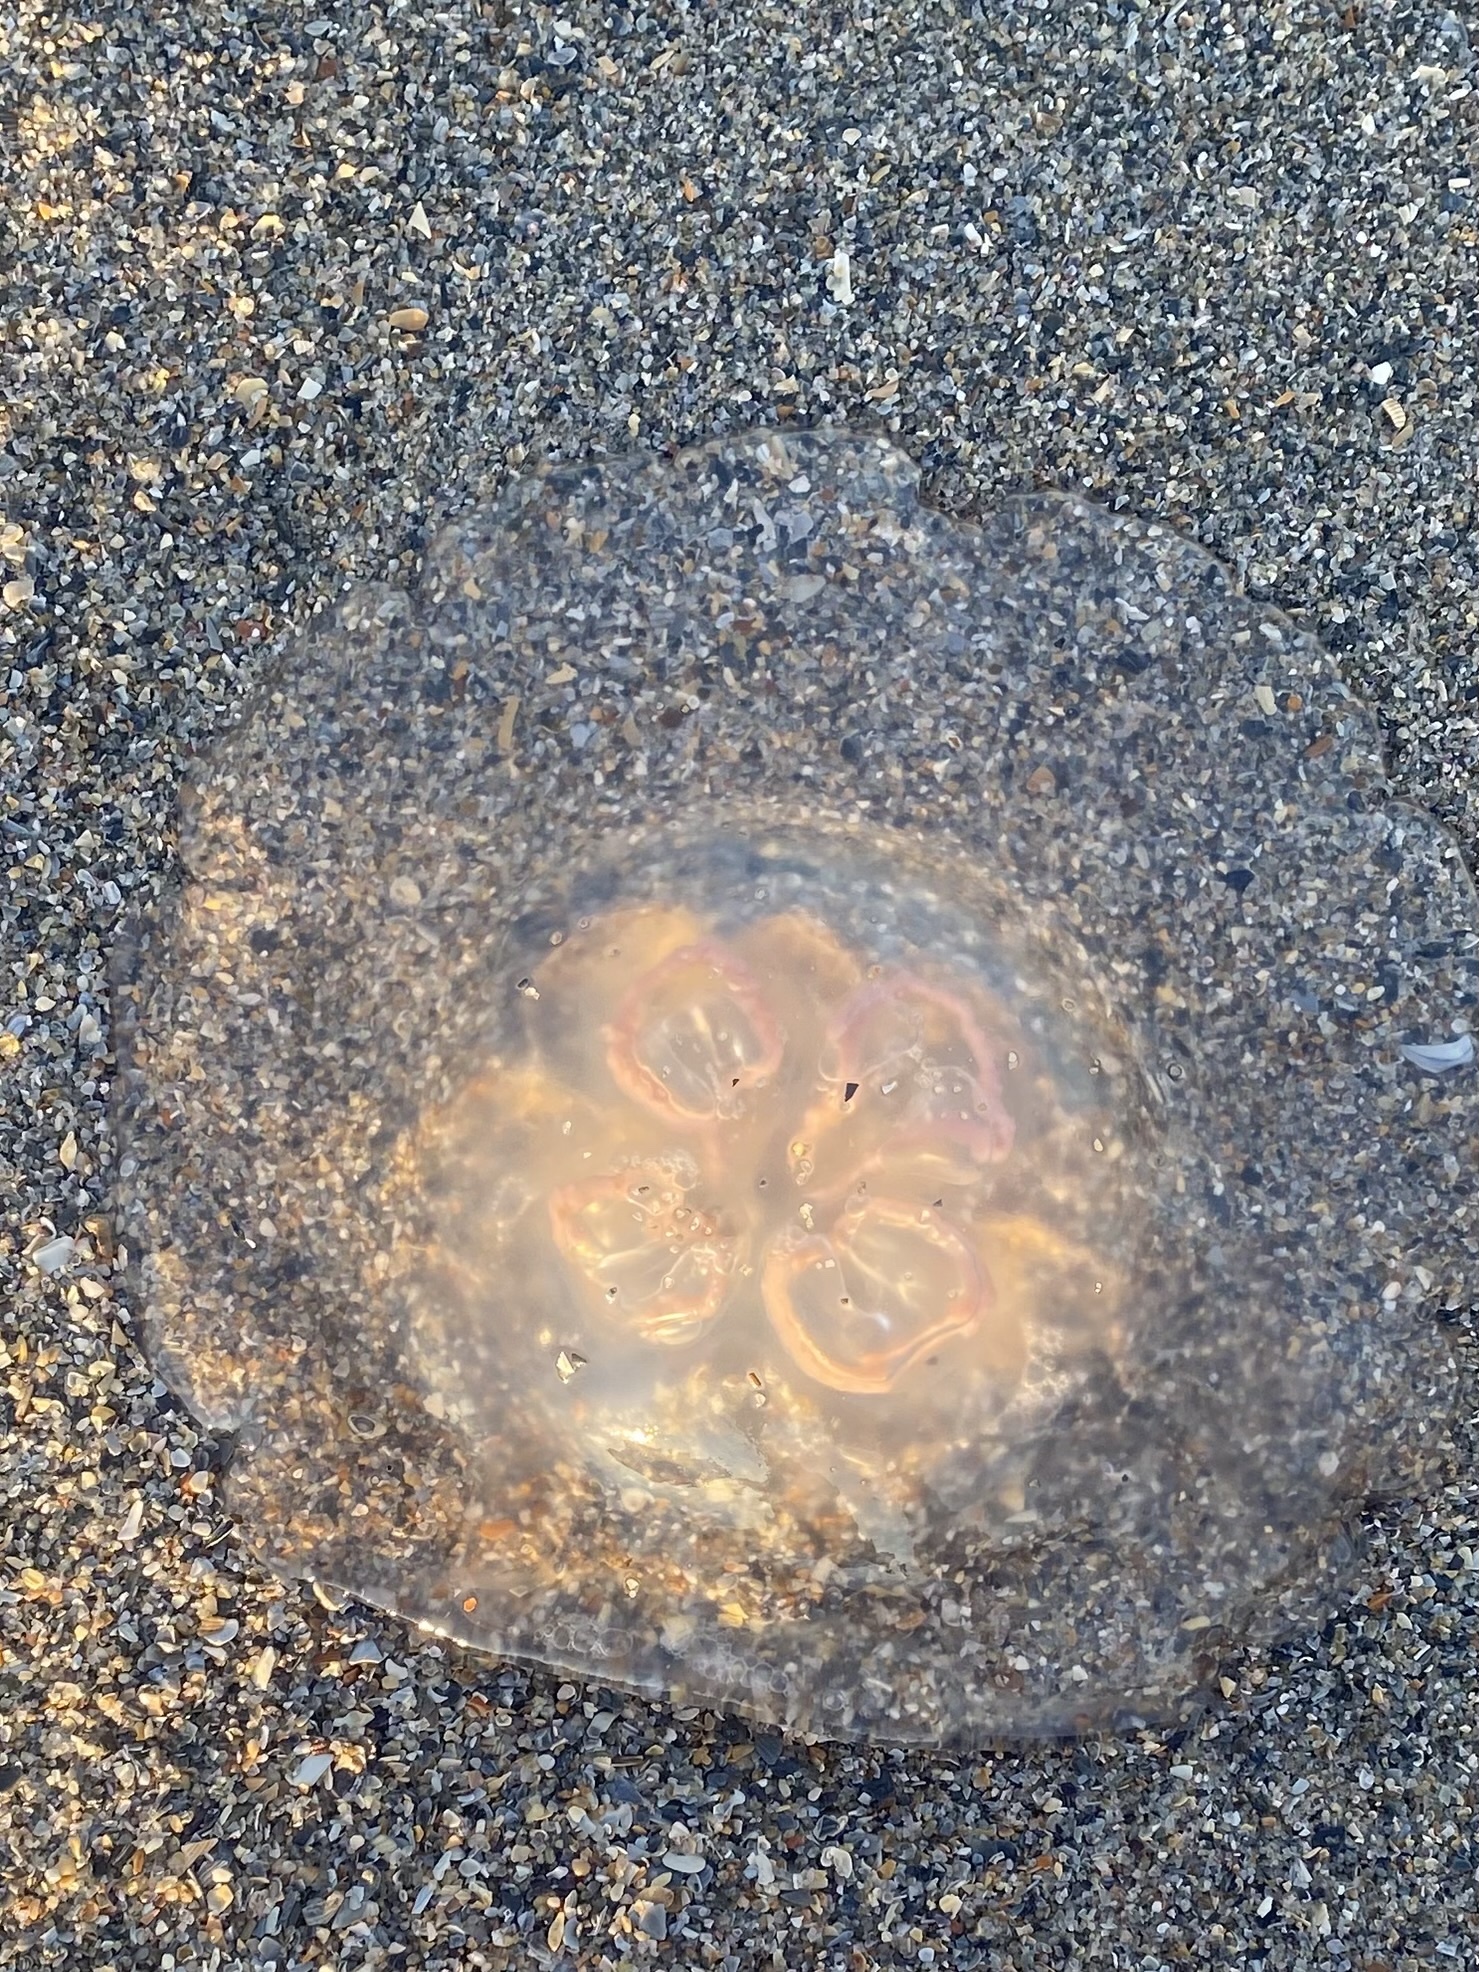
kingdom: Animalia
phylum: Cnidaria
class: Scyphozoa
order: Semaeostomeae
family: Ulmaridae
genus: Aurelia
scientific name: Aurelia
